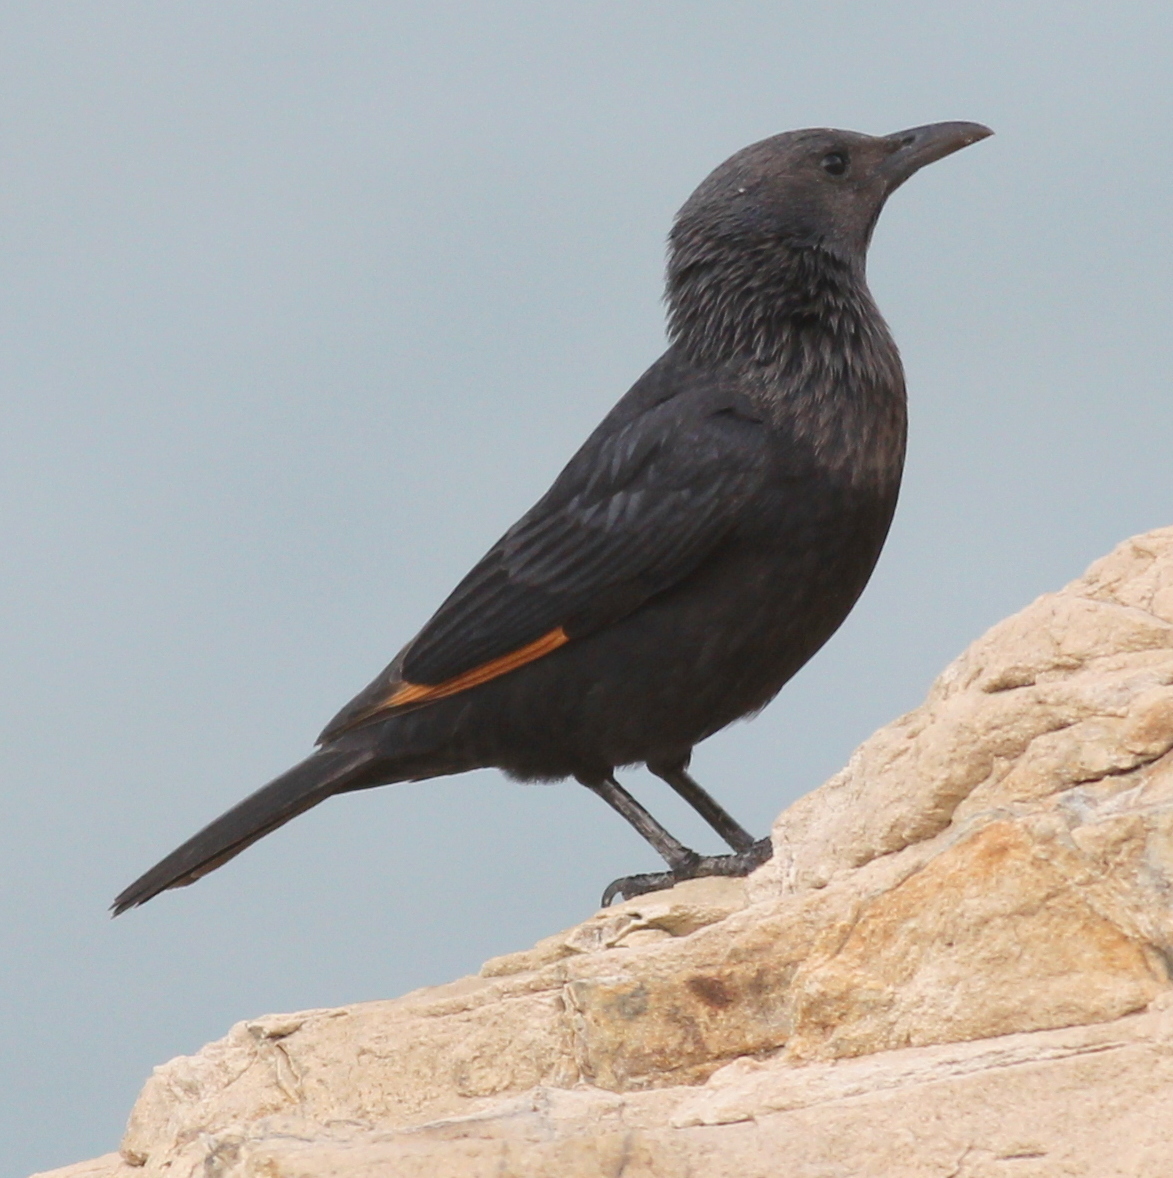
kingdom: Animalia
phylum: Chordata
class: Aves
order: Passeriformes
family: Sturnidae
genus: Onychognathus
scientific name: Onychognathus tristramii
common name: Tristram's starling
